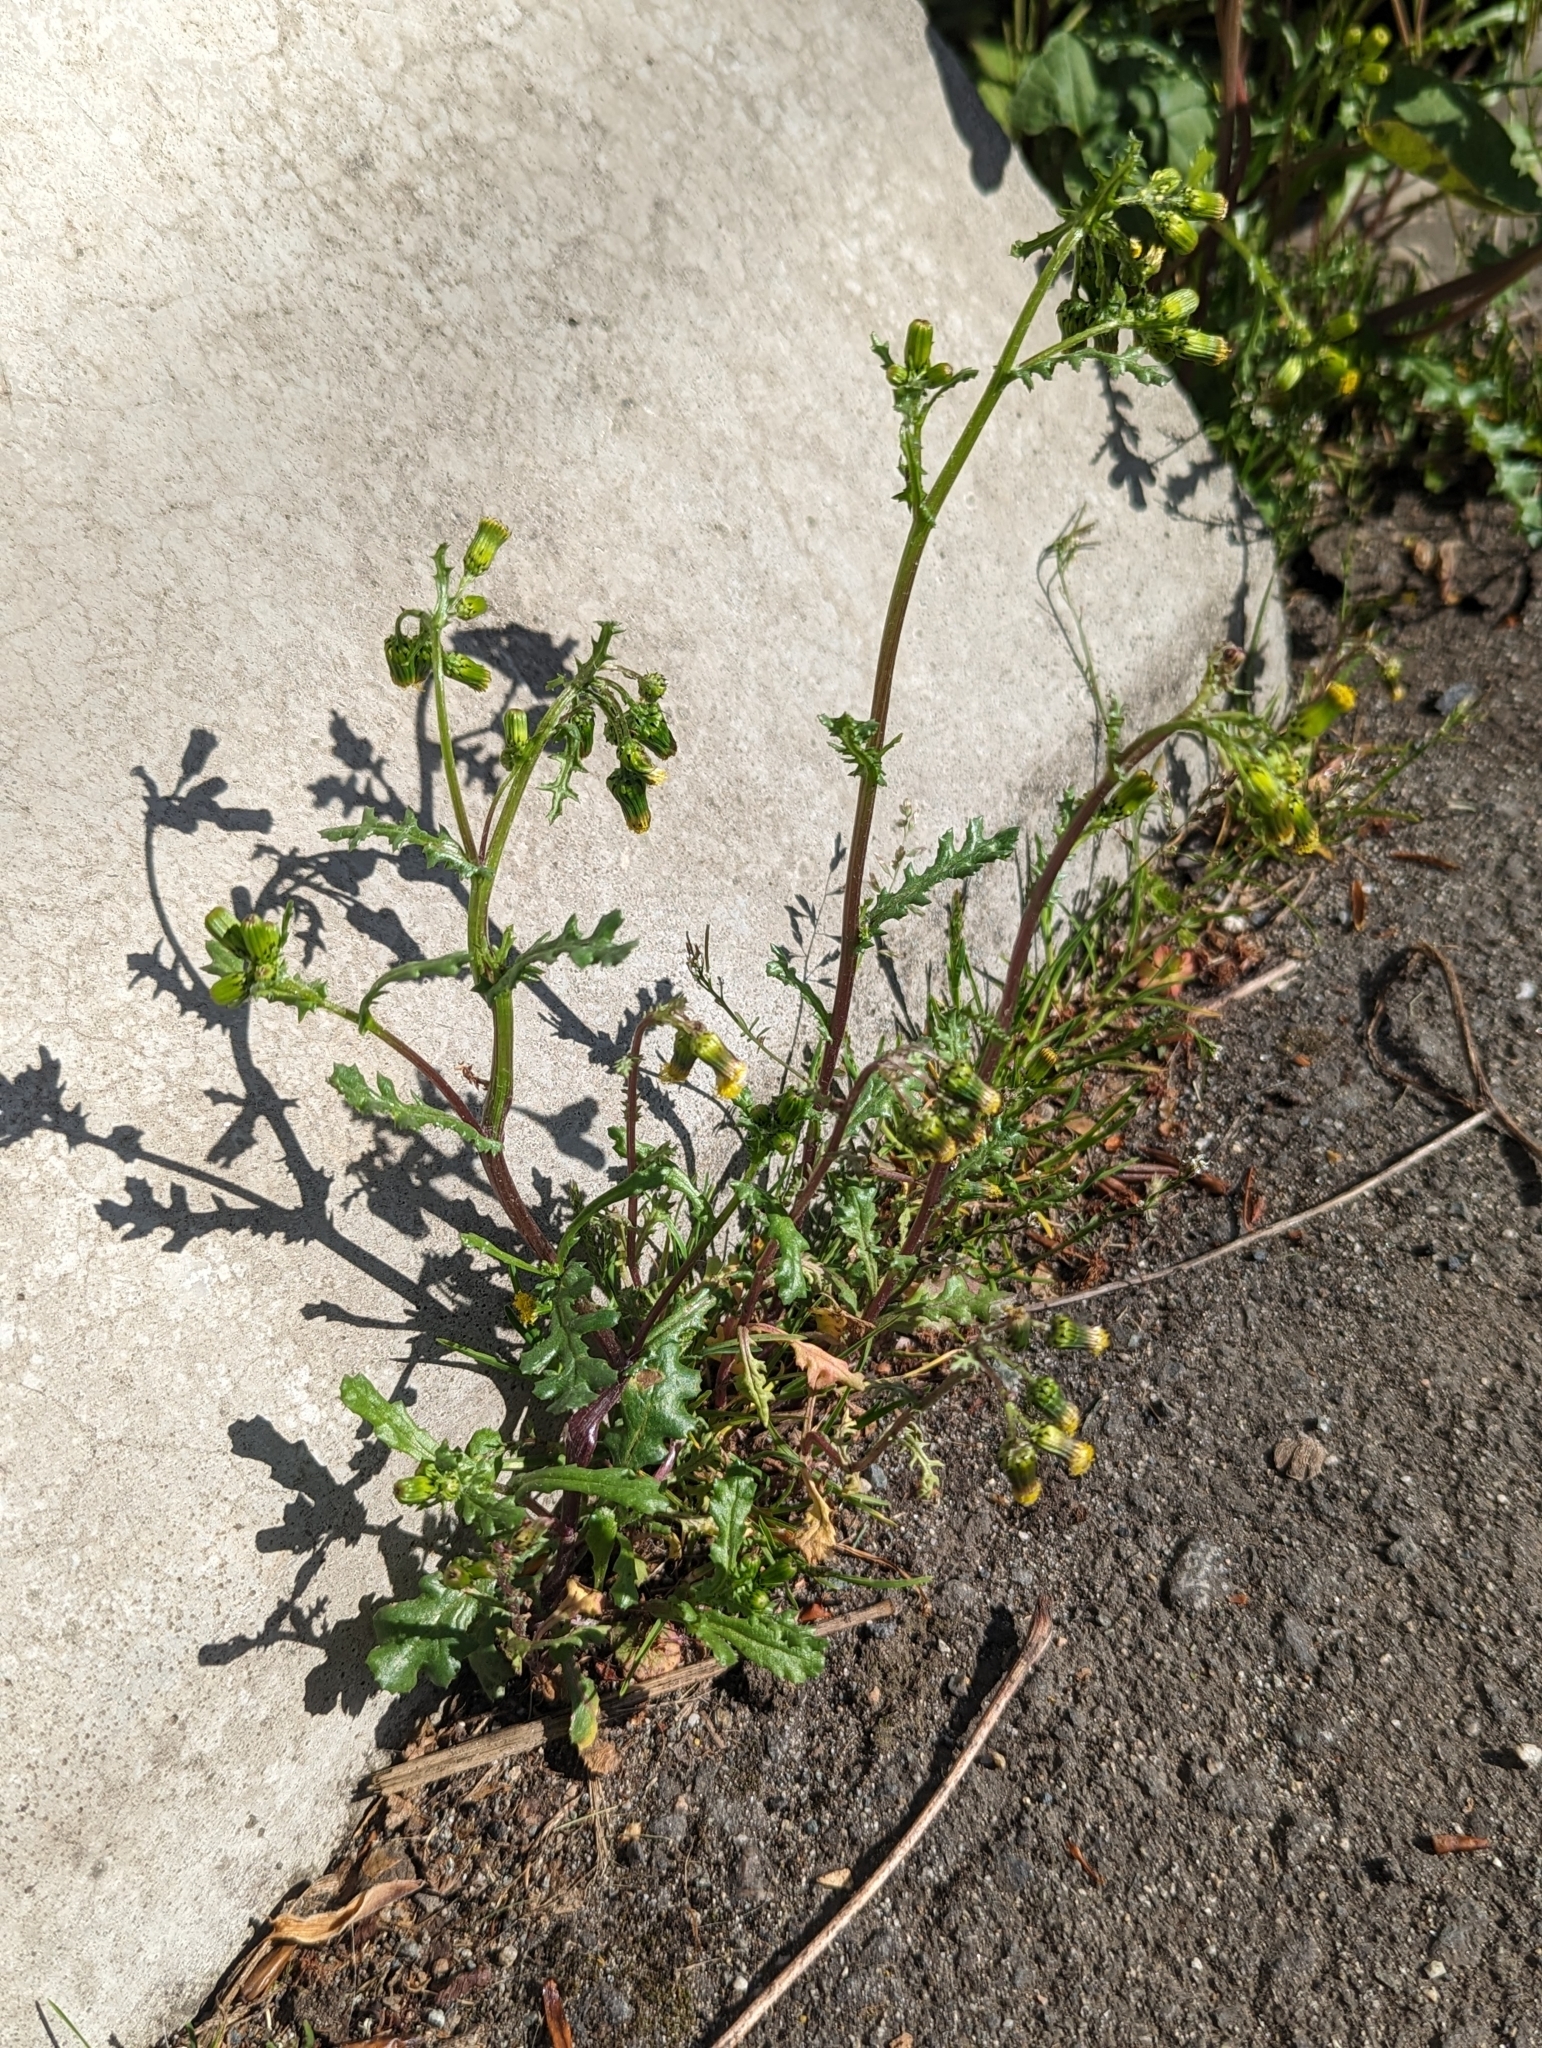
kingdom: Plantae
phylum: Tracheophyta
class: Magnoliopsida
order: Asterales
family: Asteraceae
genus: Senecio
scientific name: Senecio vulgaris
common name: Old-man-in-the-spring
